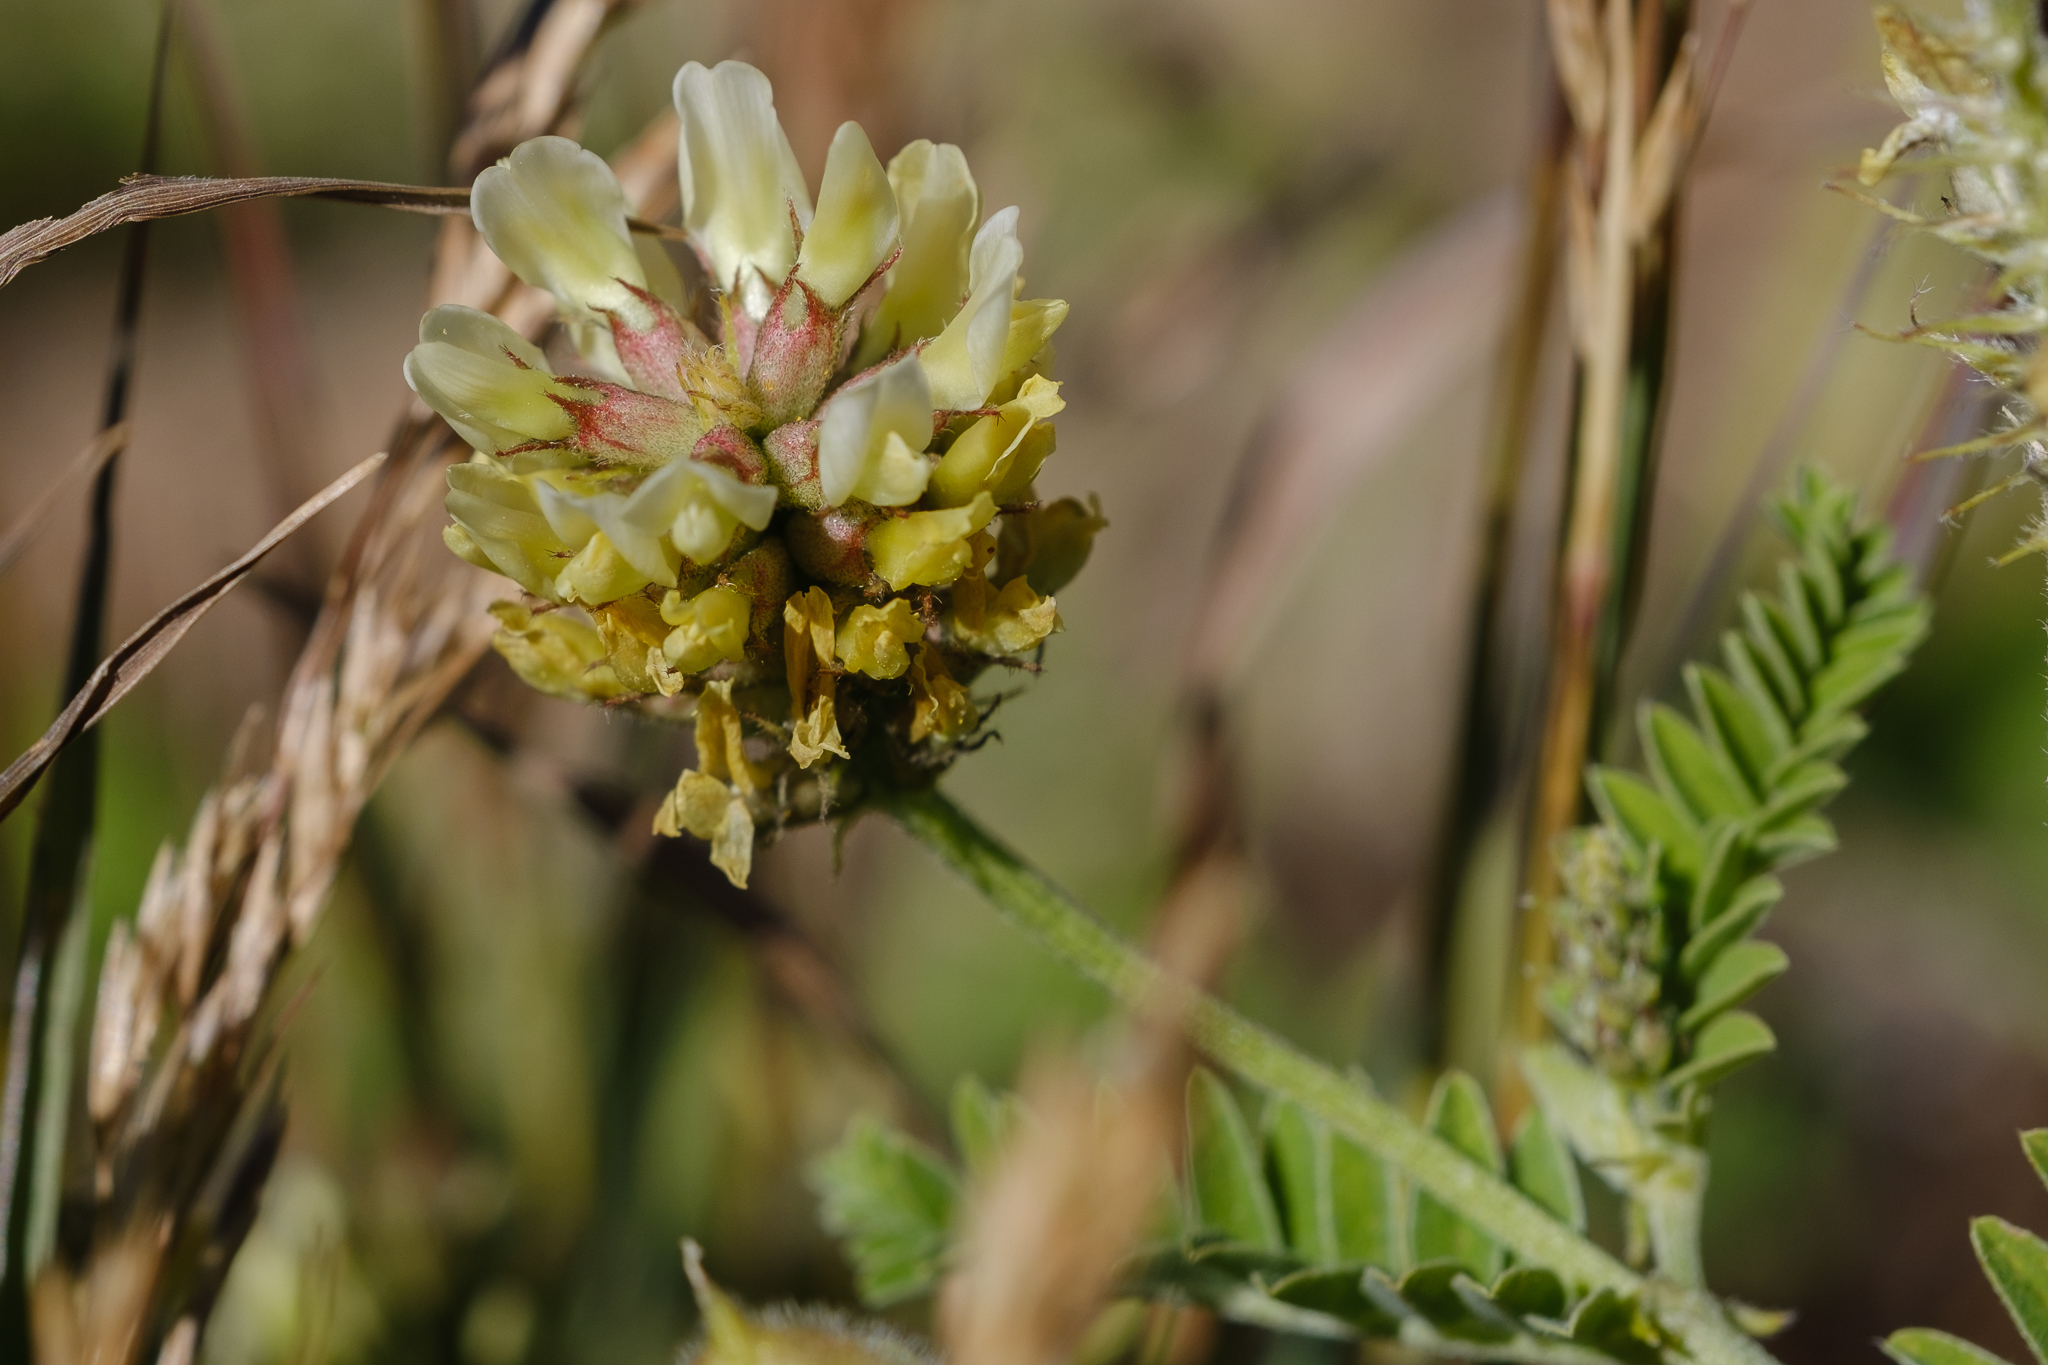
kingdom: Plantae
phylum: Tracheophyta
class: Magnoliopsida
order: Fabales
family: Fabaceae
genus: Astragalus
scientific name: Astragalus cicer
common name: Chick-pea milk-vetch
